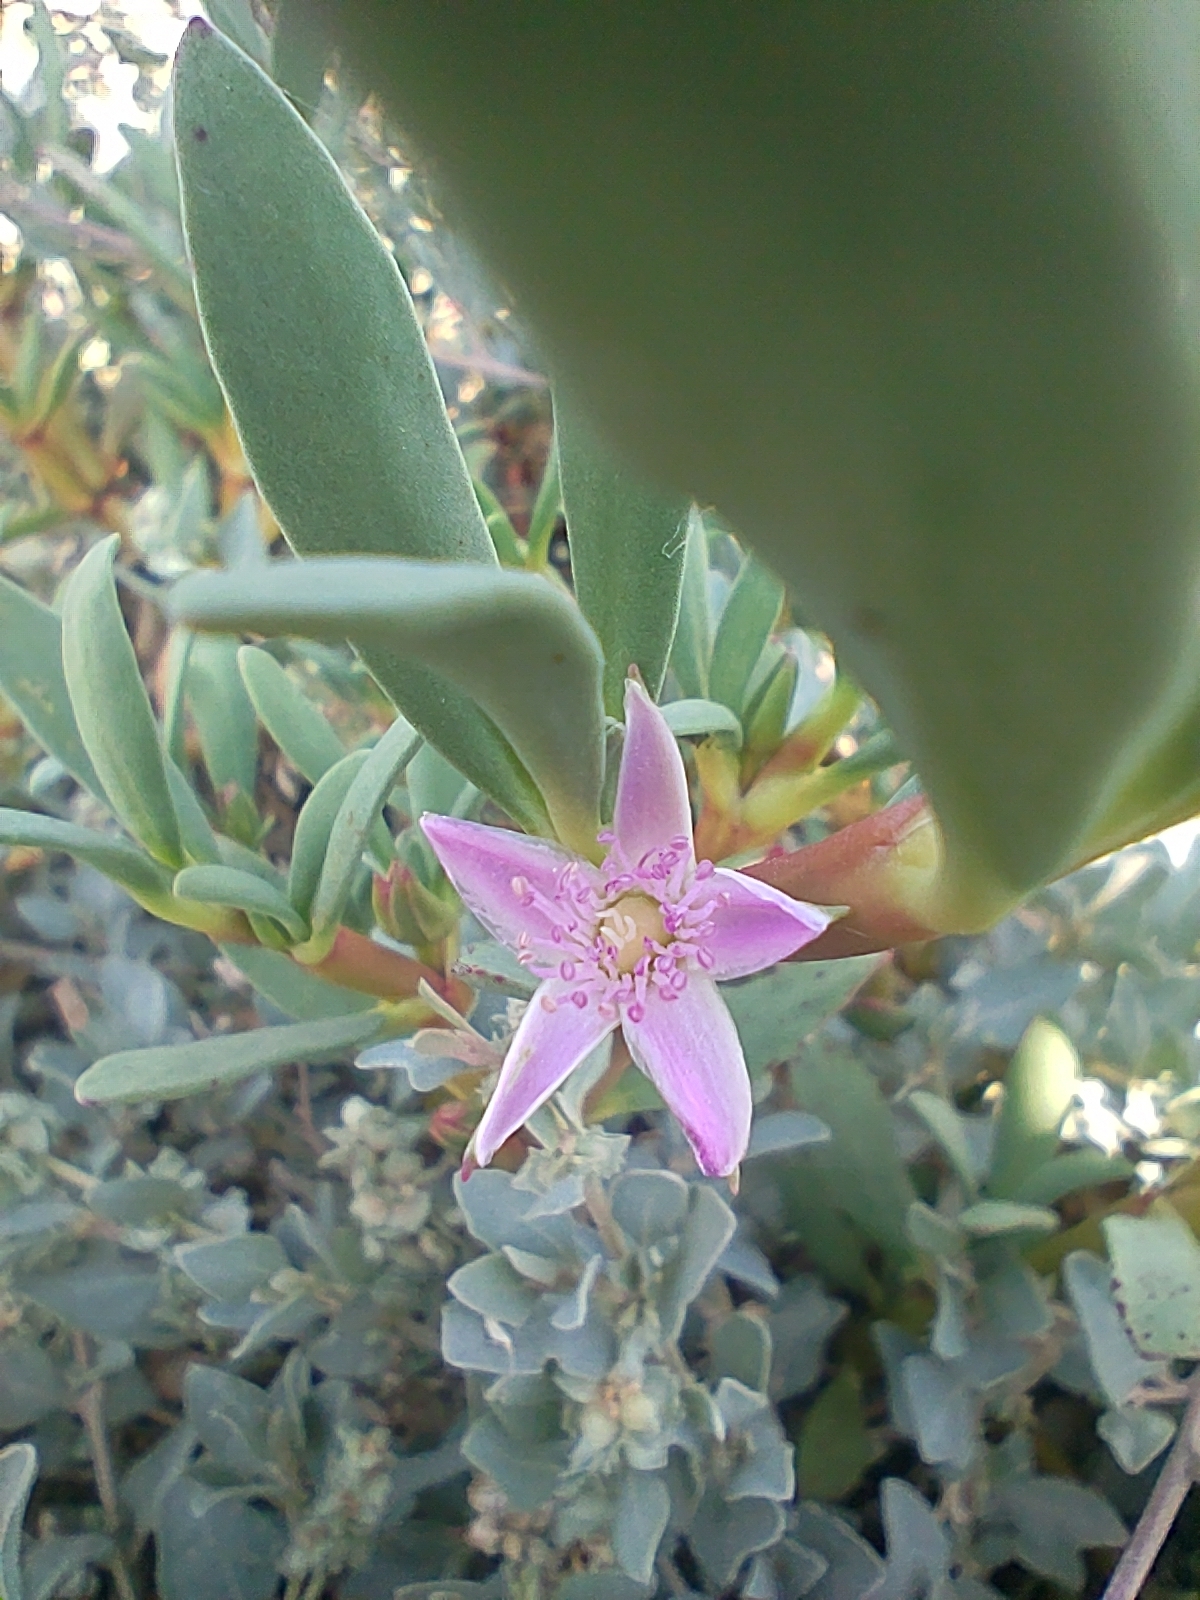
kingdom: Plantae
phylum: Tracheophyta
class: Magnoliopsida
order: Caryophyllales
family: Aizoaceae
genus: Sesuvium
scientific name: Sesuvium portulacastrum
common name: Sea-purslane
